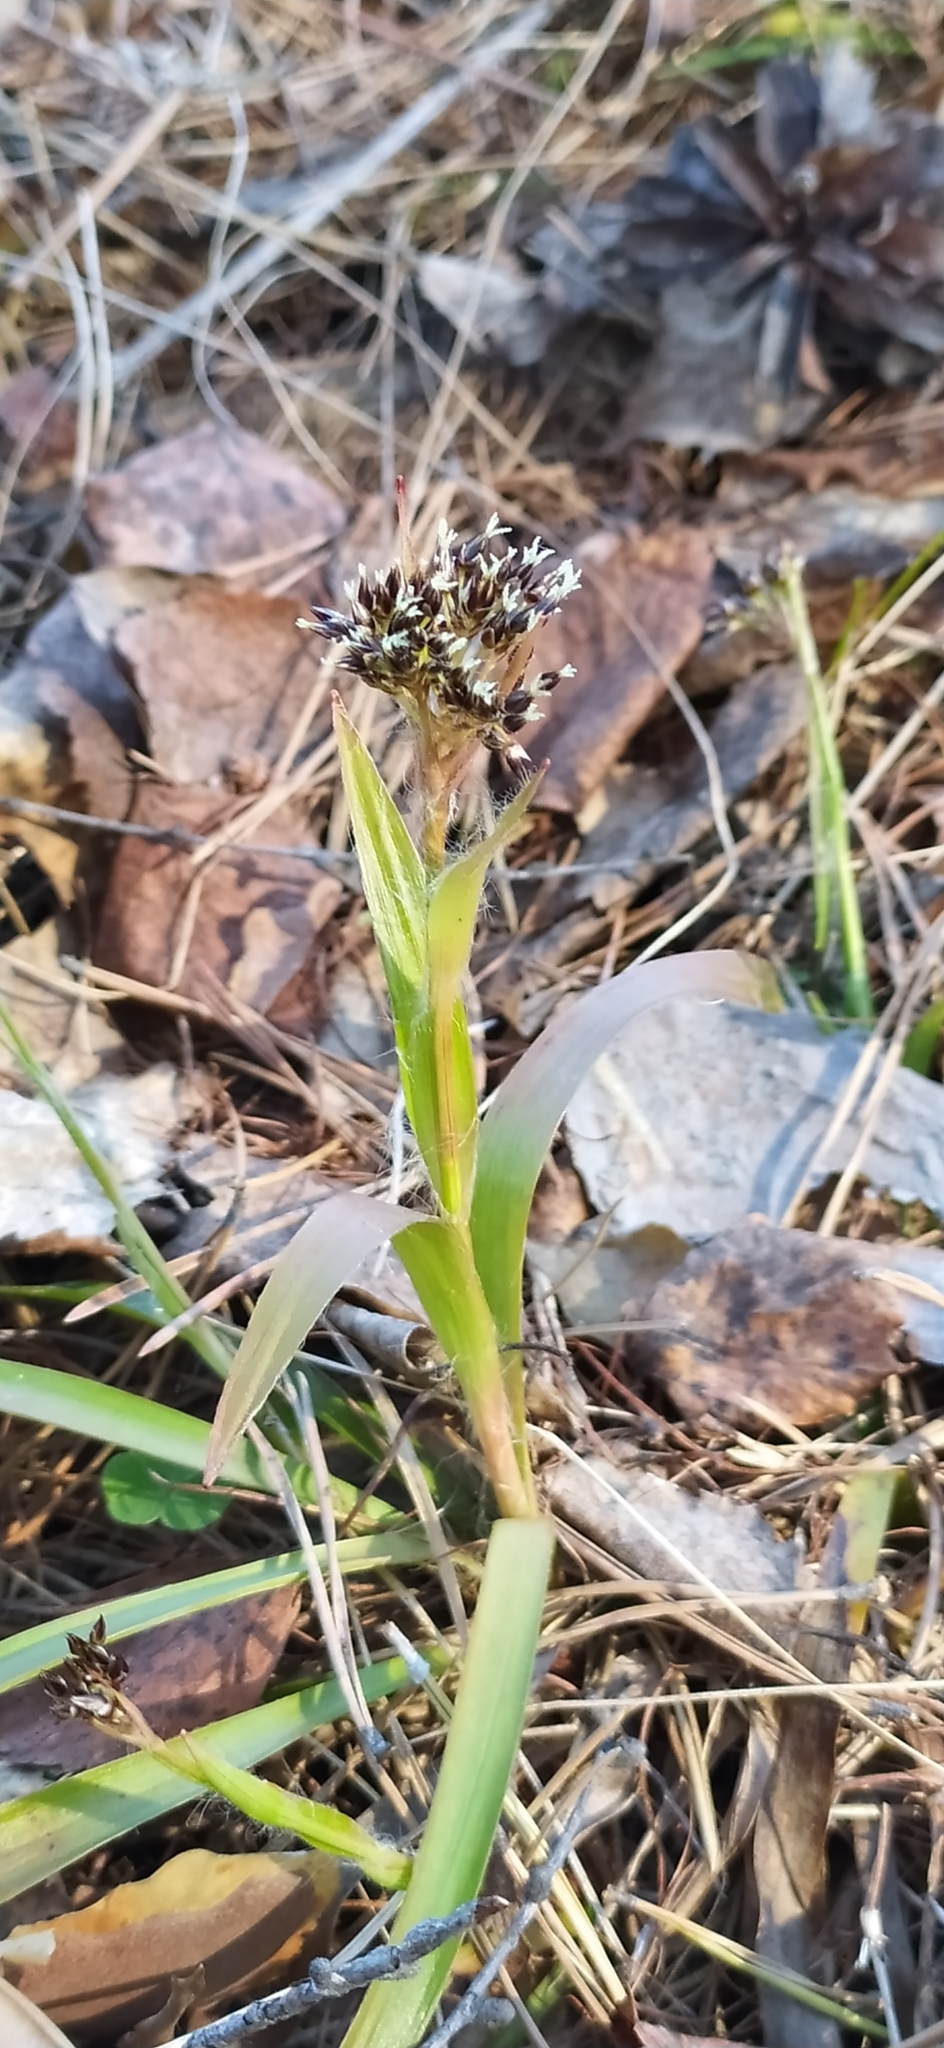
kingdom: Plantae
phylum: Tracheophyta
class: Liliopsida
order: Poales
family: Juncaceae
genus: Luzula
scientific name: Luzula pilosa
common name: Hairy wood-rush
